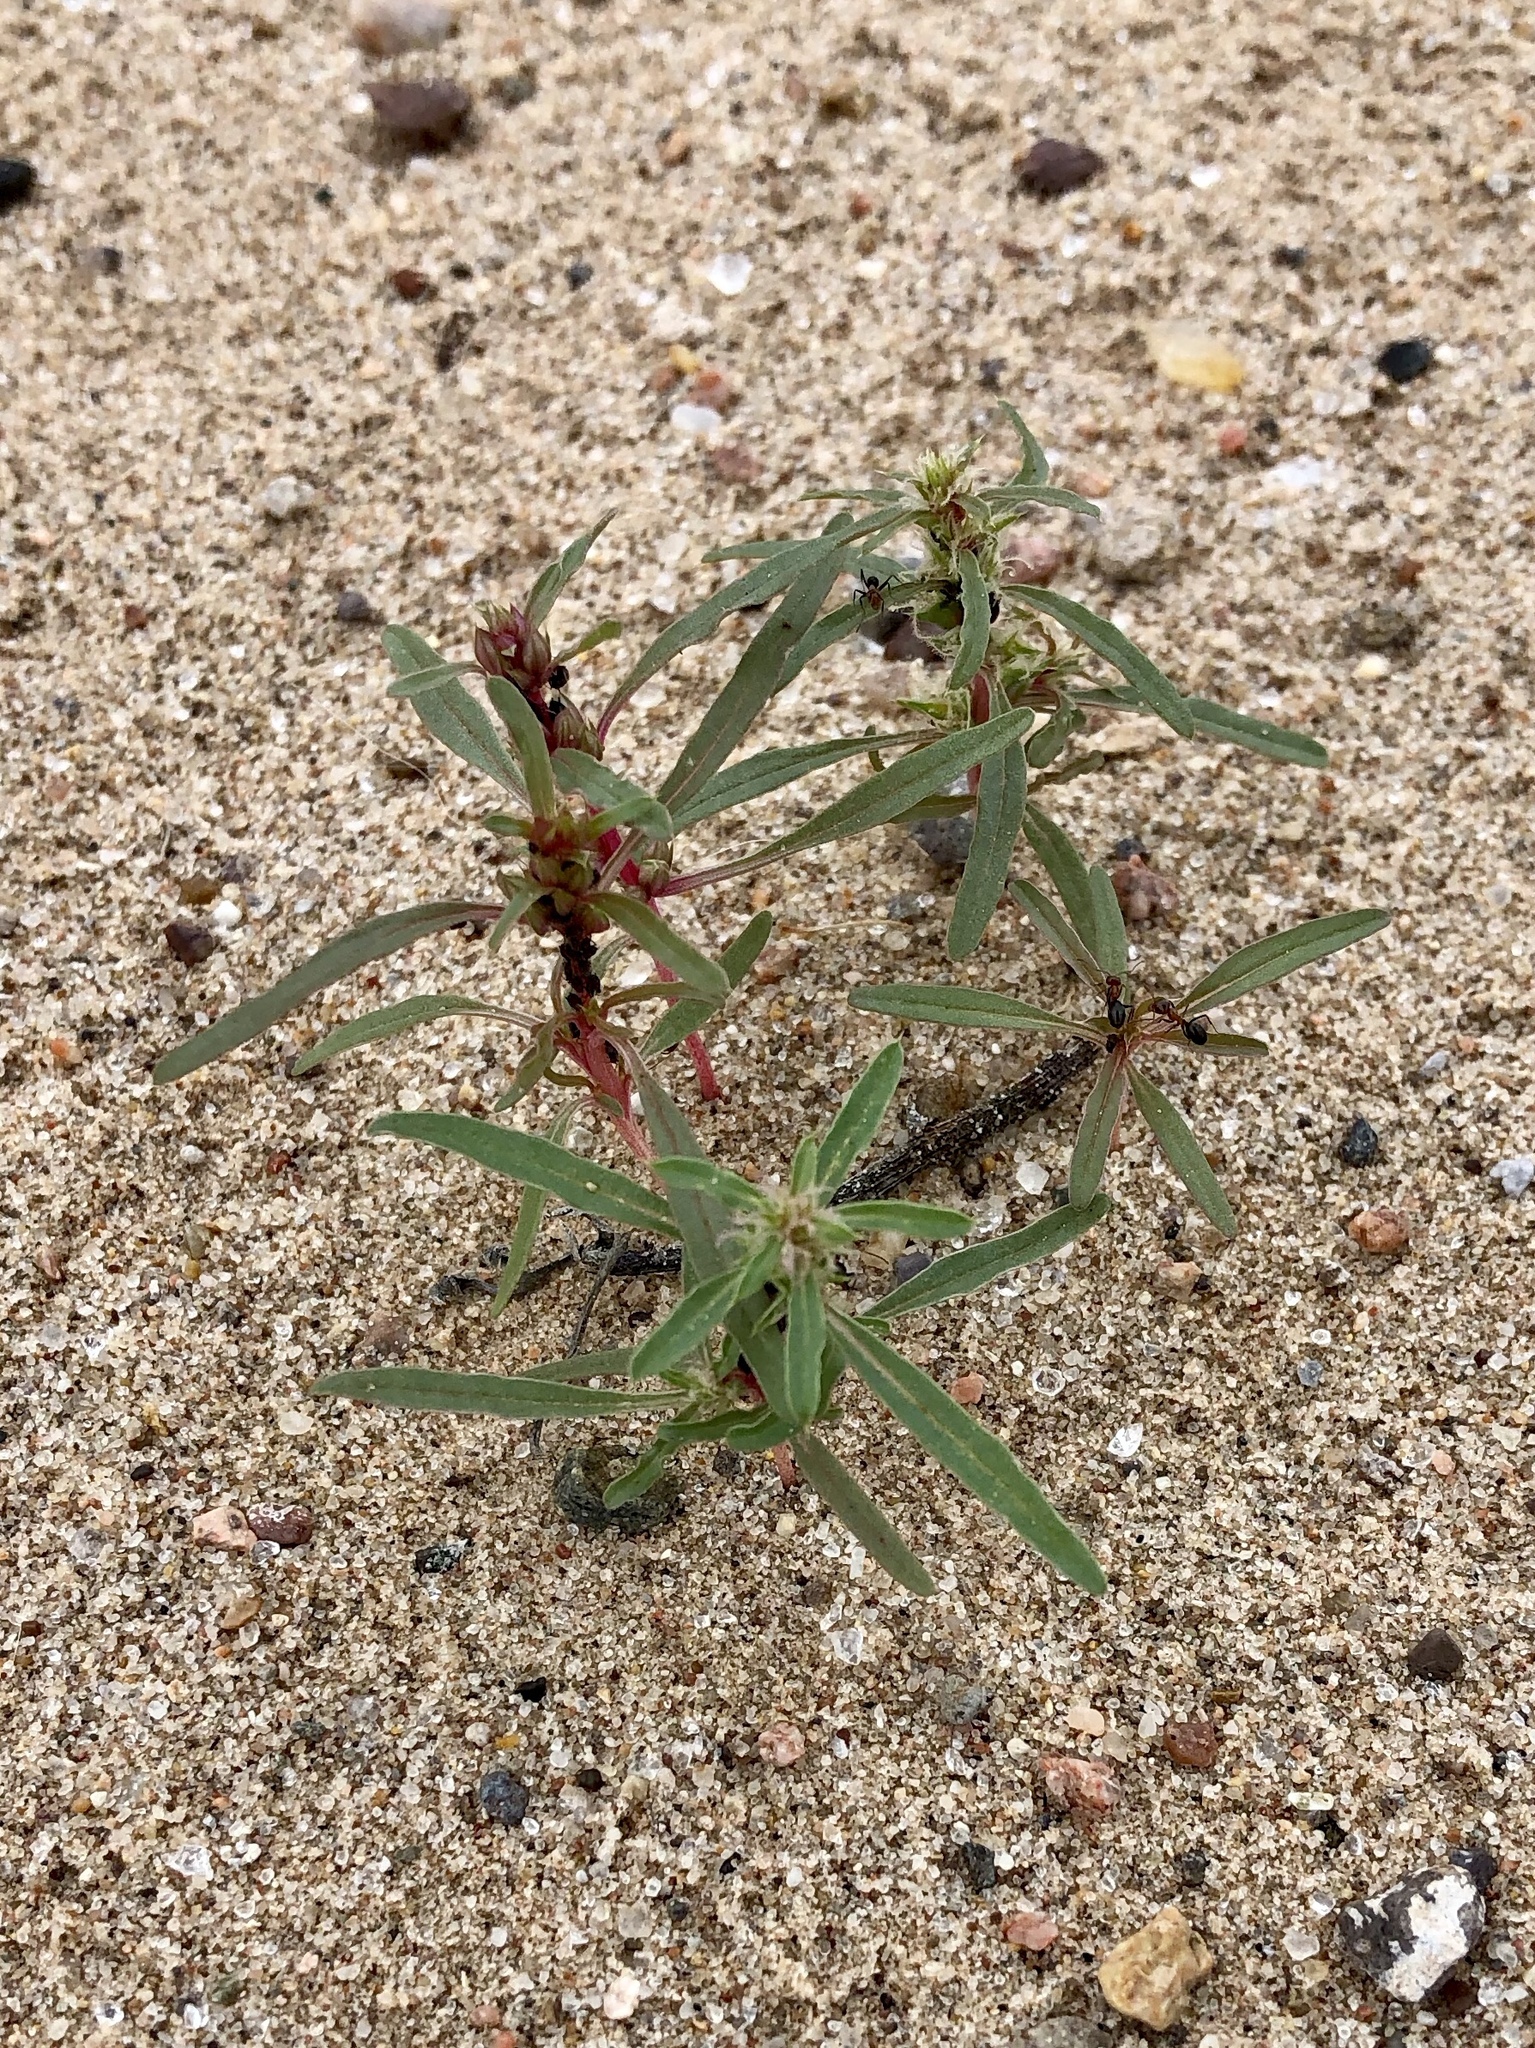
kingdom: Plantae
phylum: Tracheophyta
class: Magnoliopsida
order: Caryophyllales
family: Amaranthaceae
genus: Amaranthus
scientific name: Amaranthus acanthochiton
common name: Greenstripe
